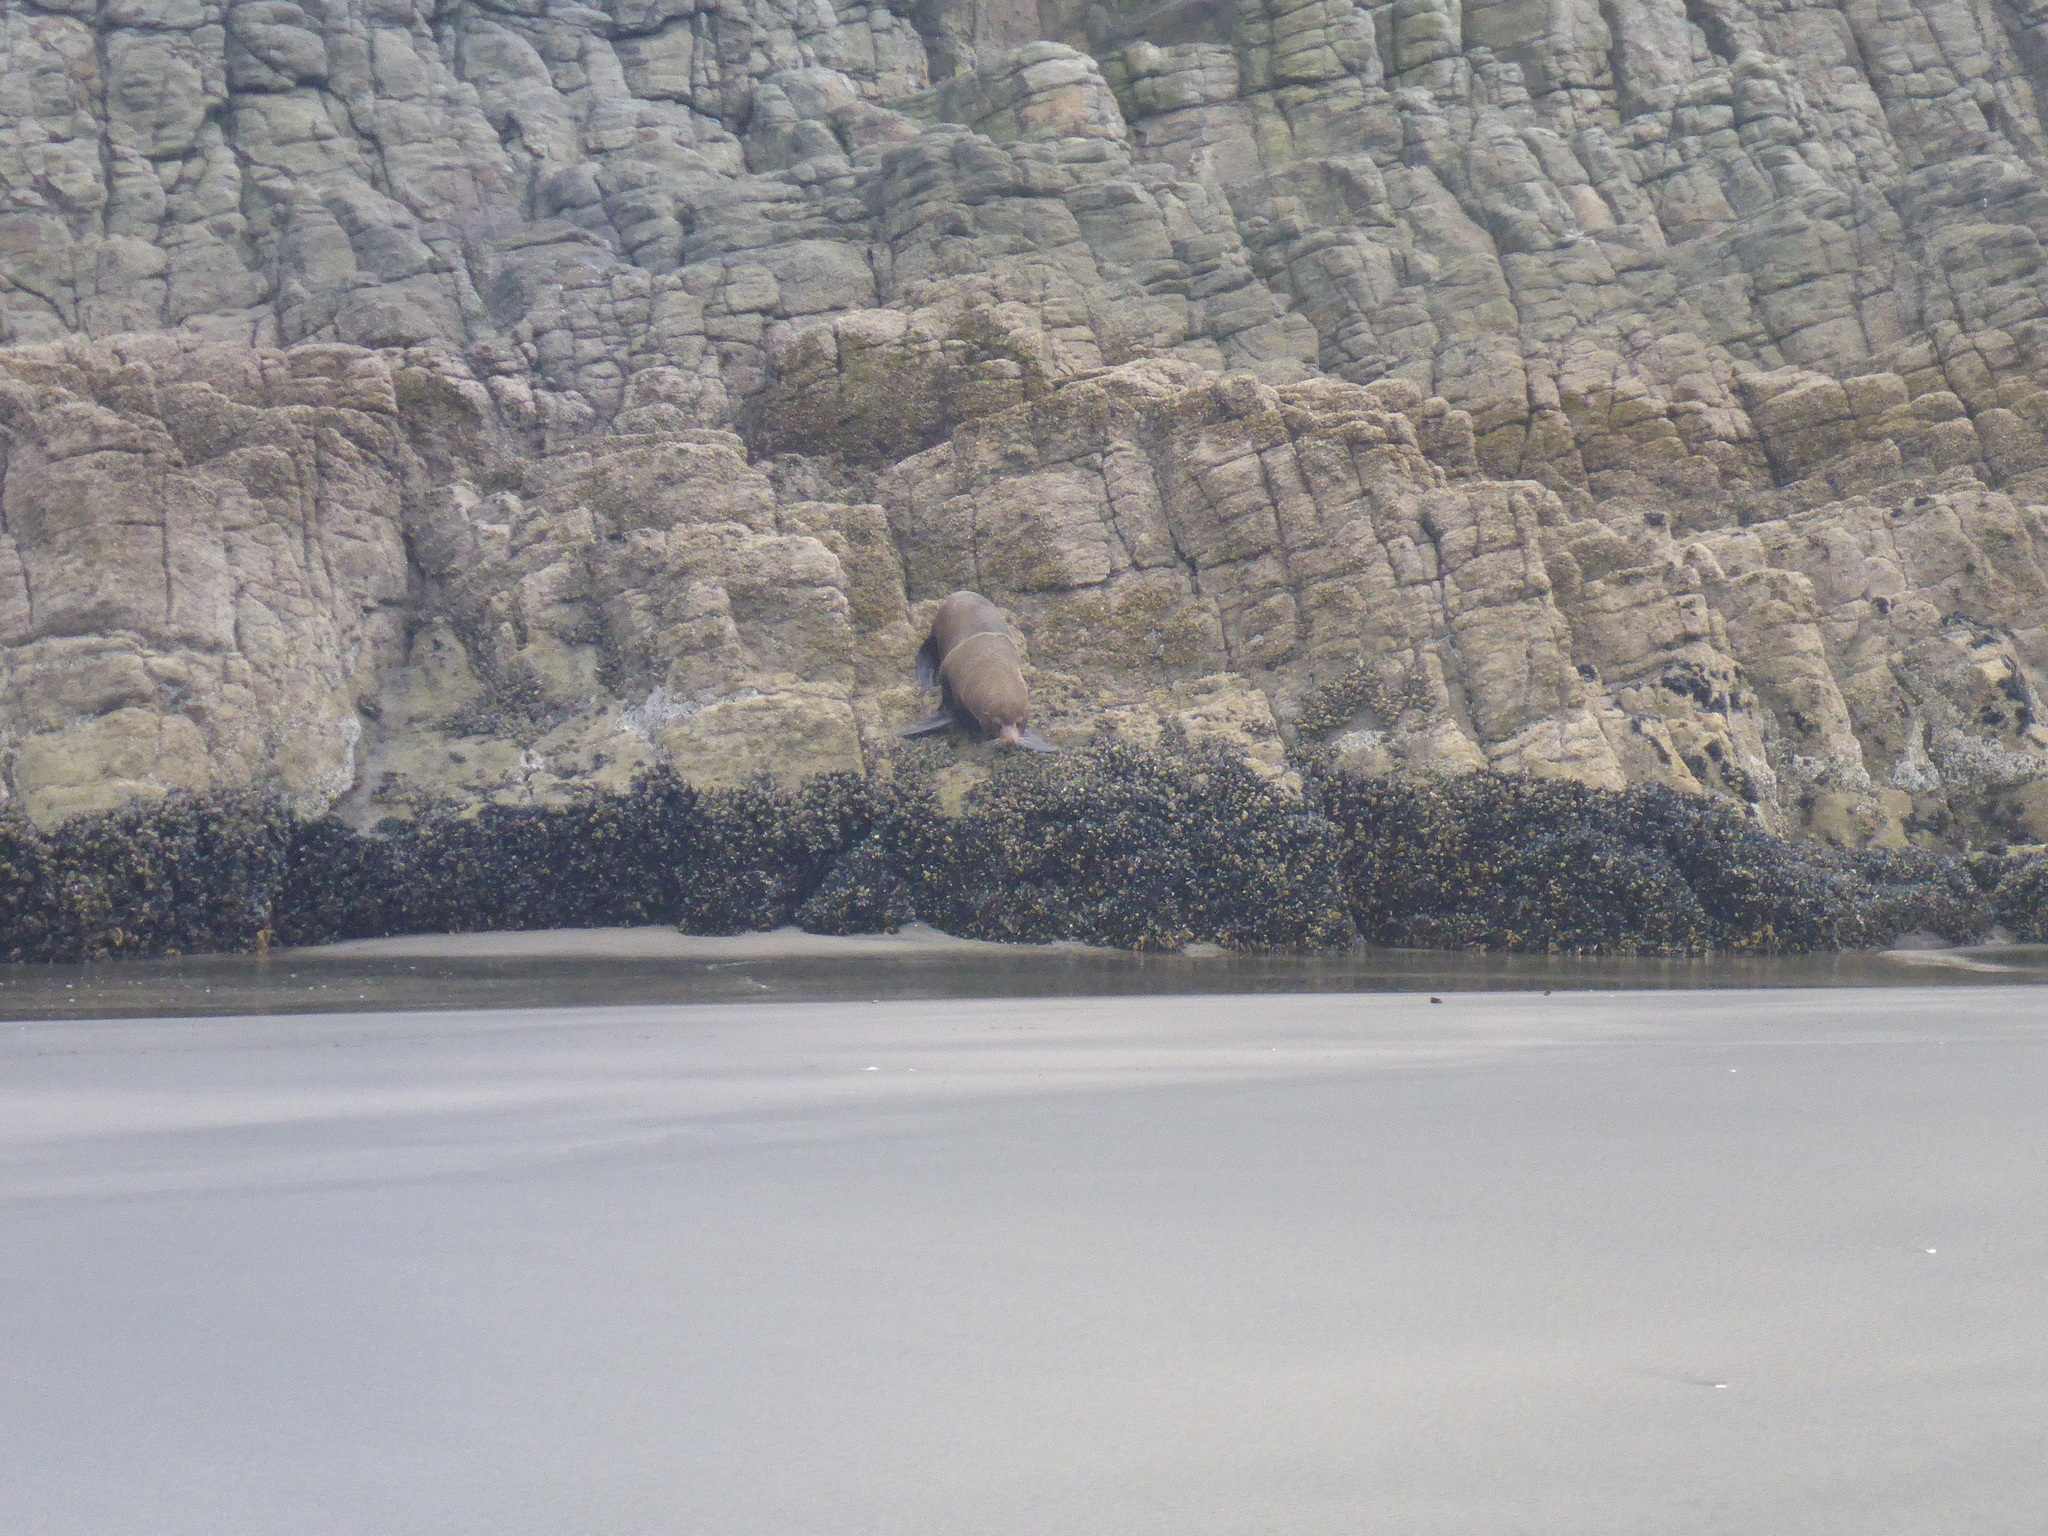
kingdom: Animalia
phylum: Chordata
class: Mammalia
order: Carnivora
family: Otariidae
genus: Arctocephalus
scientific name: Arctocephalus forsteri
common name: New zealand fur seal
